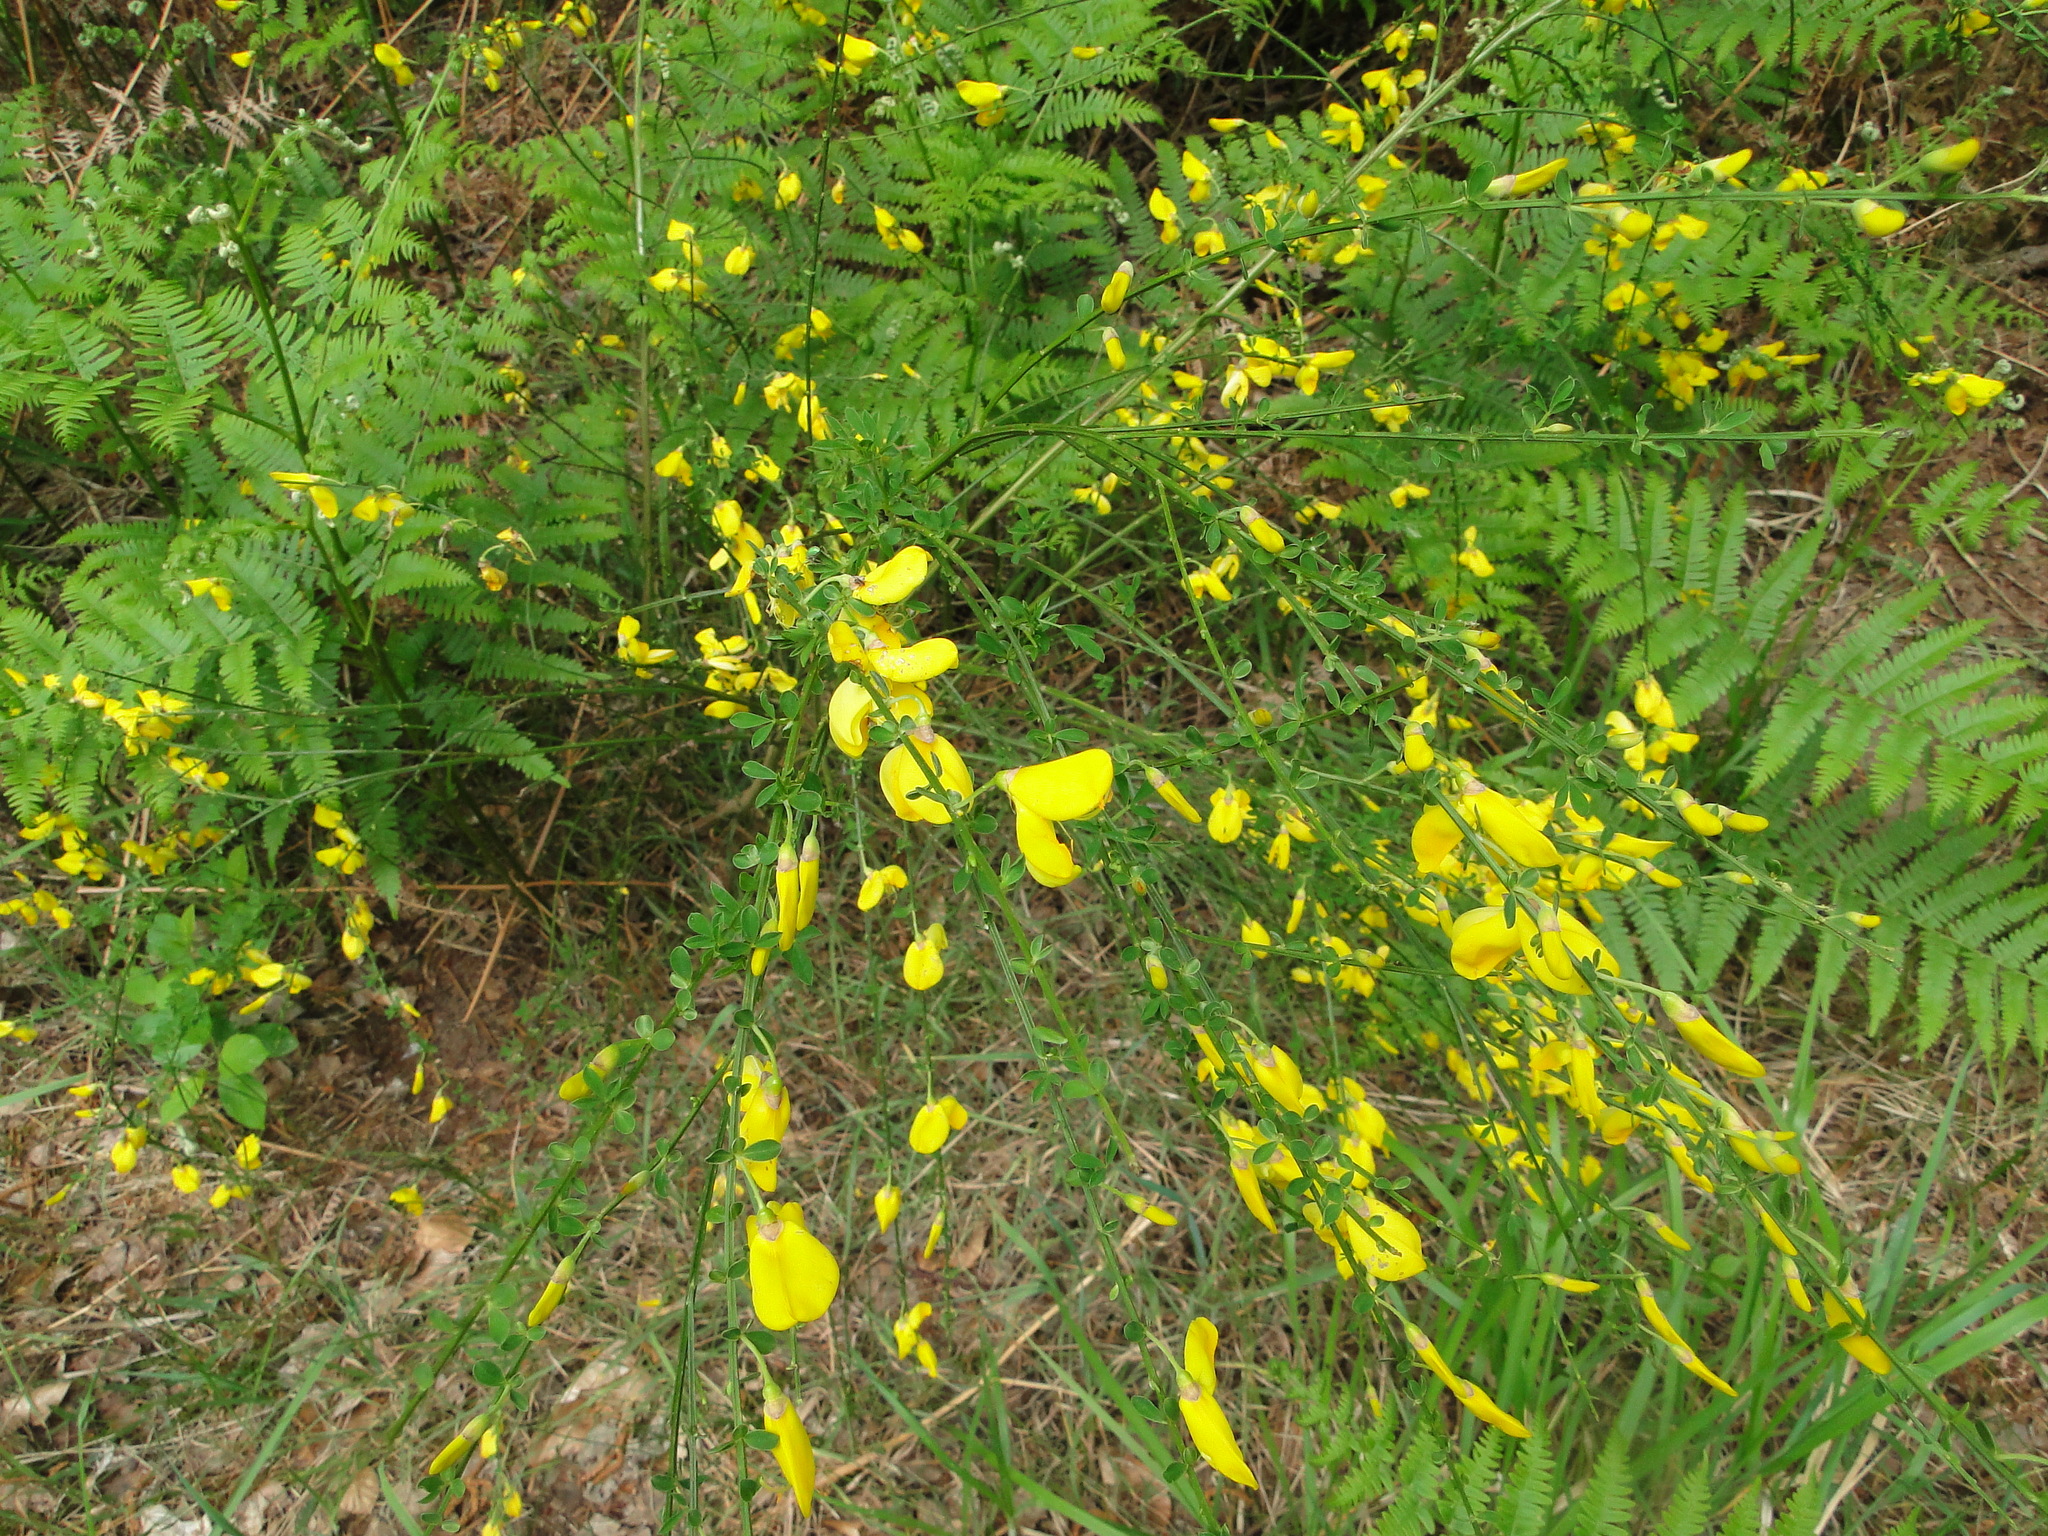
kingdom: Plantae
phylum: Tracheophyta
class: Magnoliopsida
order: Fabales
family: Fabaceae
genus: Cytisus
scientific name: Cytisus scoparius
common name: Scotch broom
